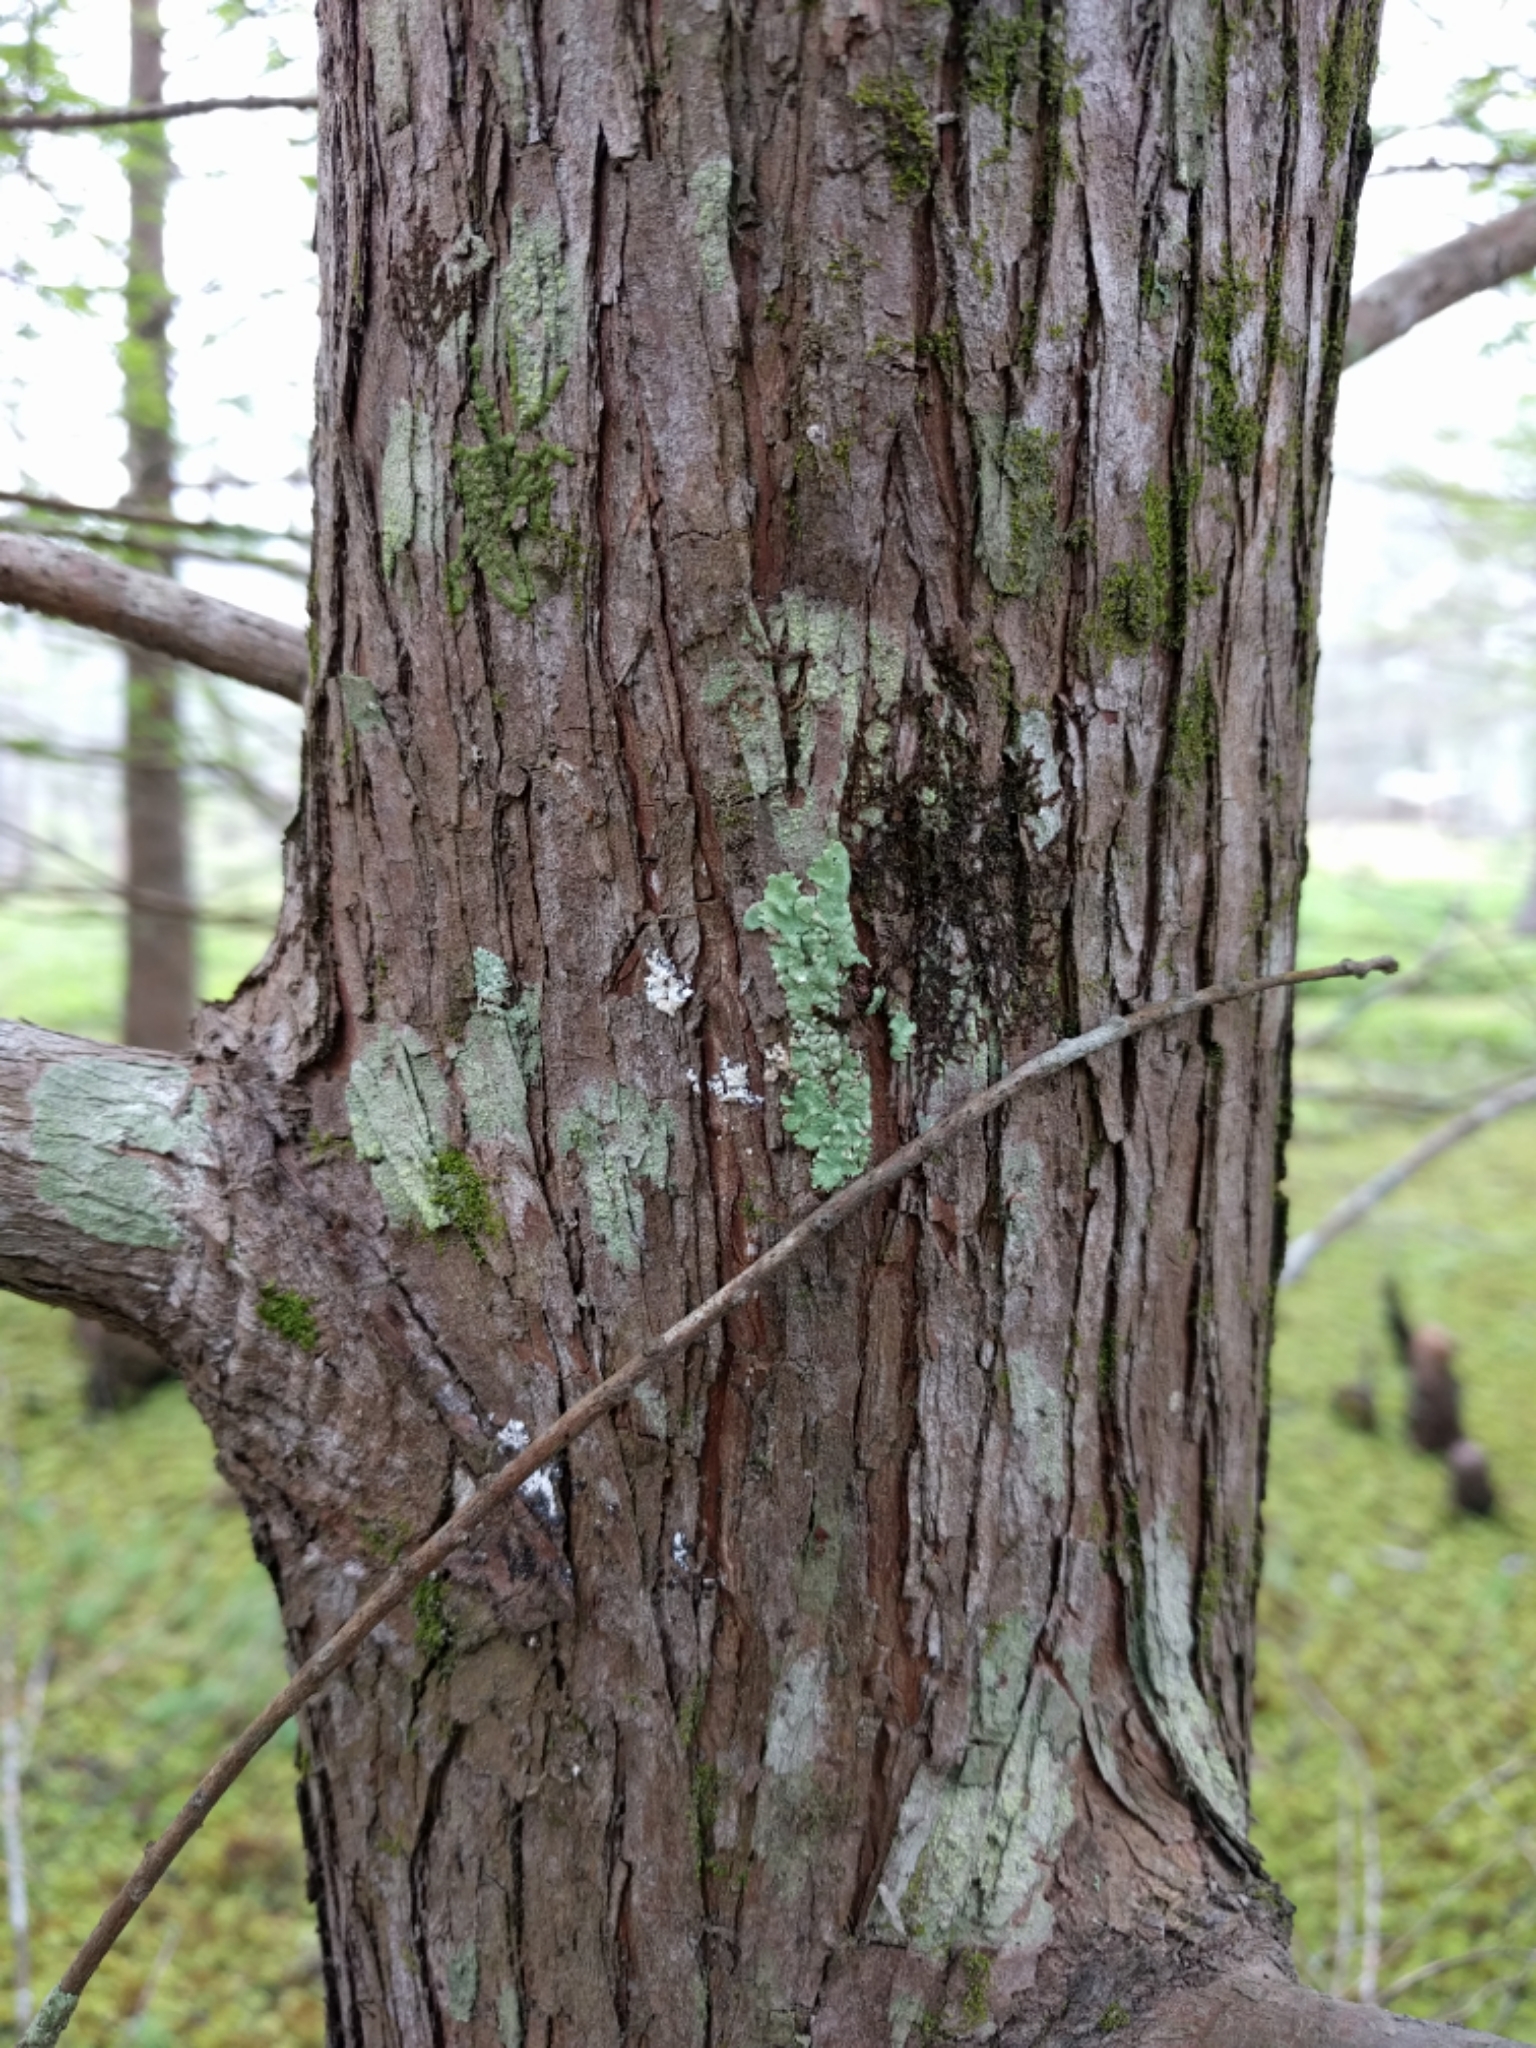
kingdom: Plantae
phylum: Tracheophyta
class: Pinopsida
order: Pinales
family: Cupressaceae
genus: Taxodium
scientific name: Taxodium distichum
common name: Bald cypress
